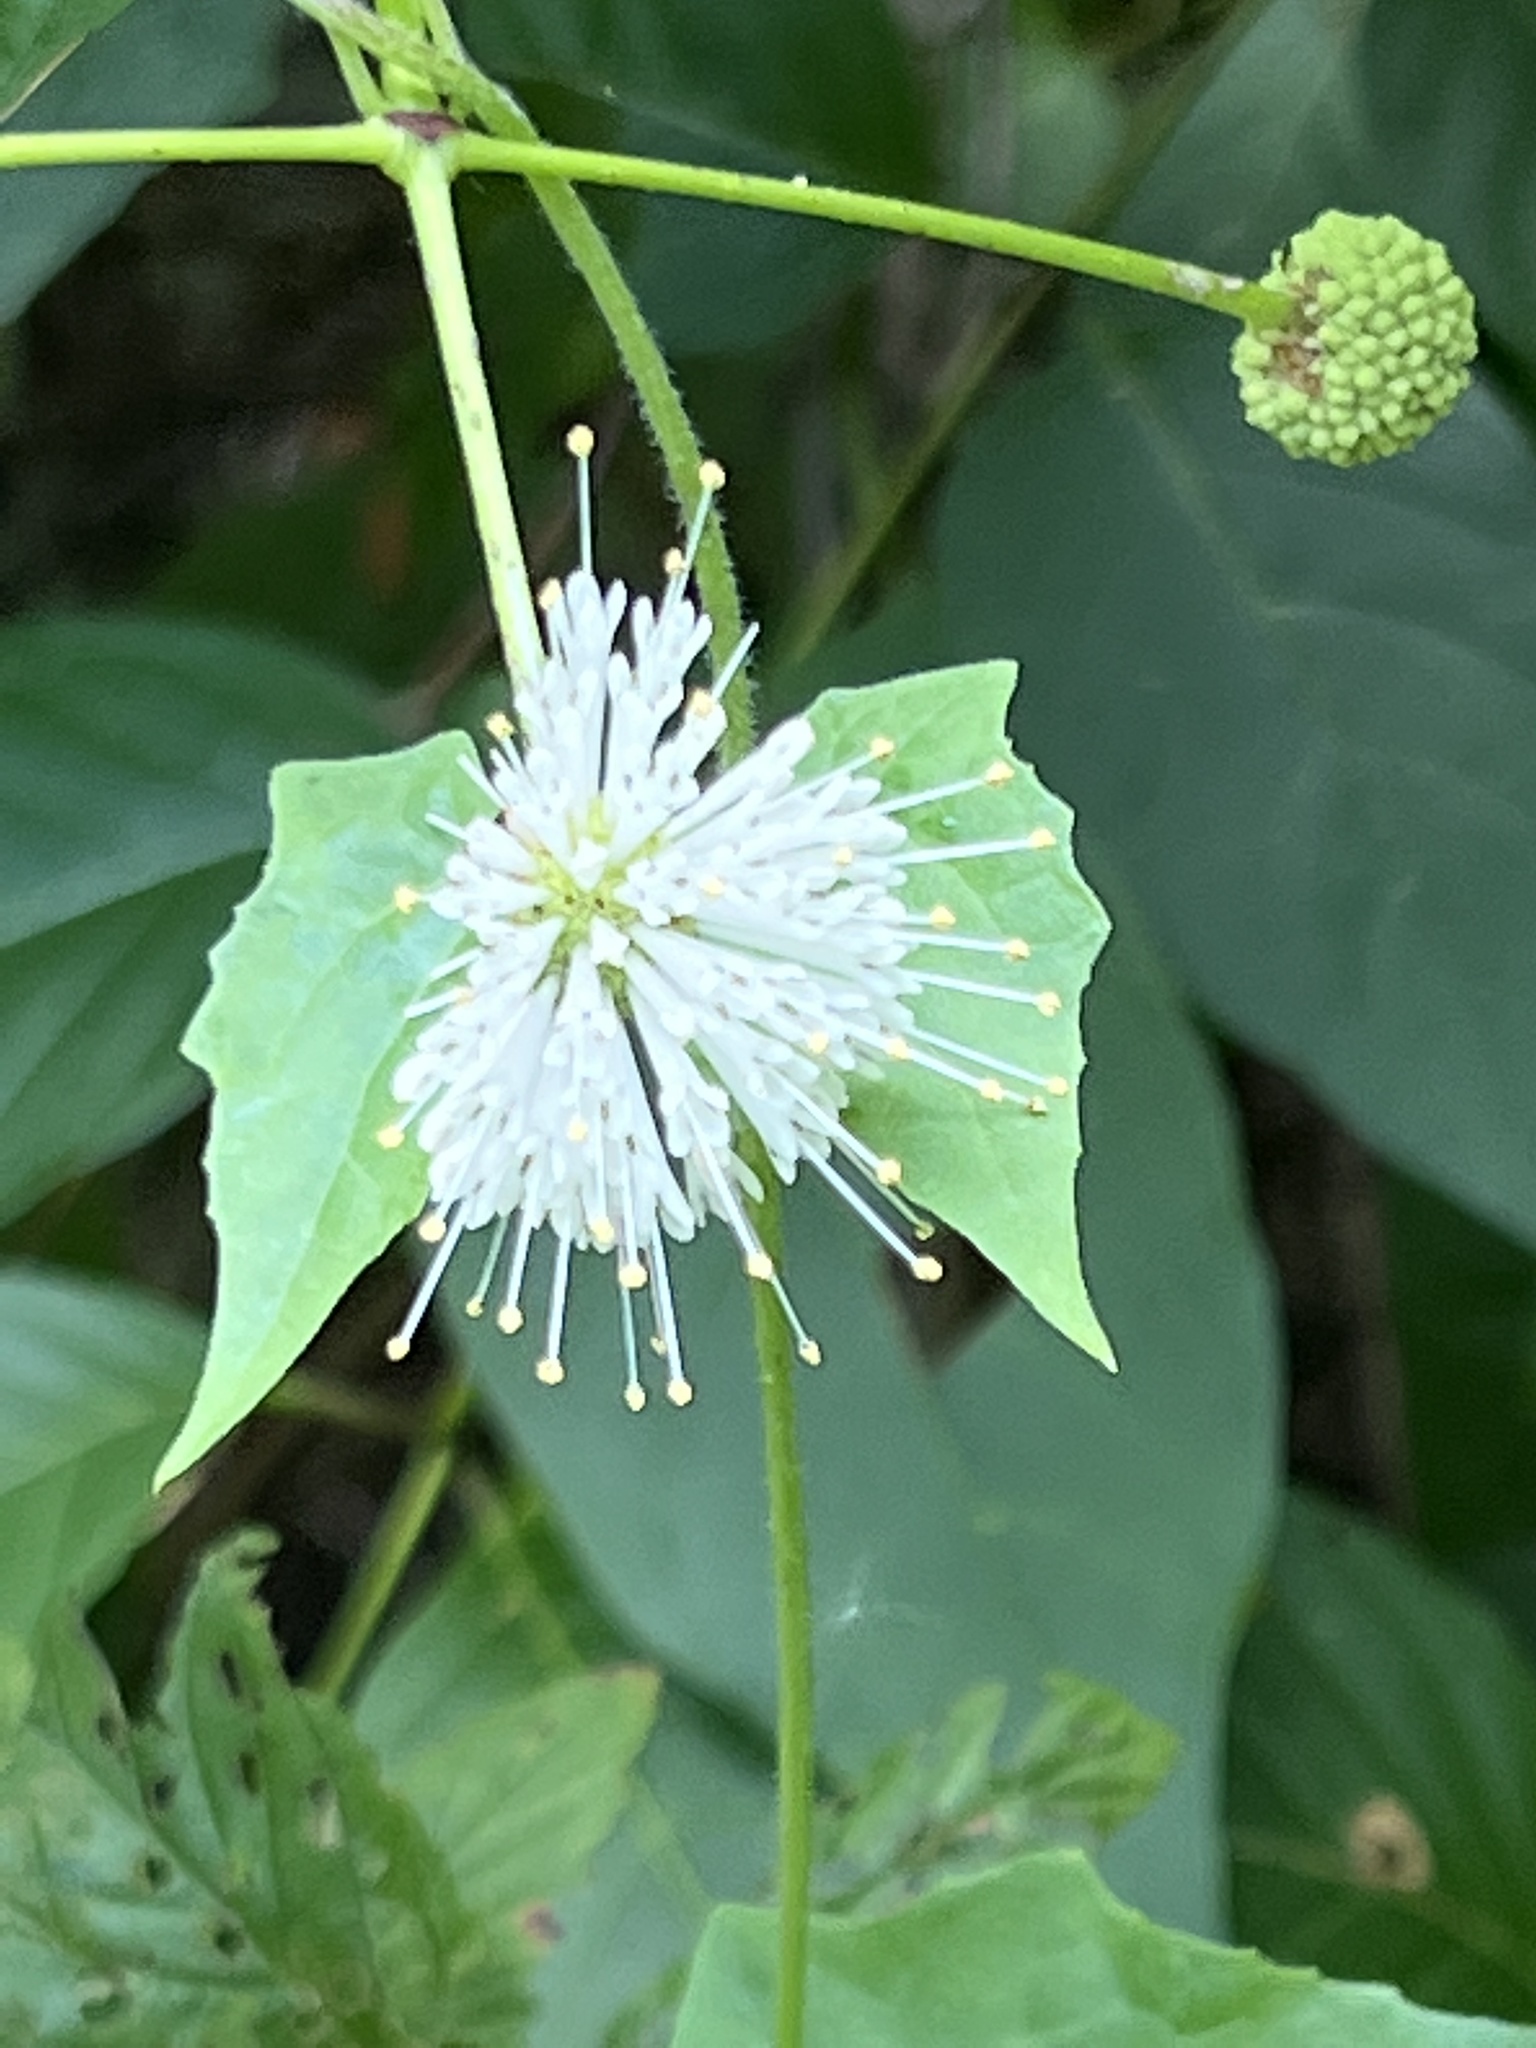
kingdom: Plantae
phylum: Tracheophyta
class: Magnoliopsida
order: Gentianales
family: Rubiaceae
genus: Cephalanthus
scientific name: Cephalanthus occidentalis
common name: Button-willow
